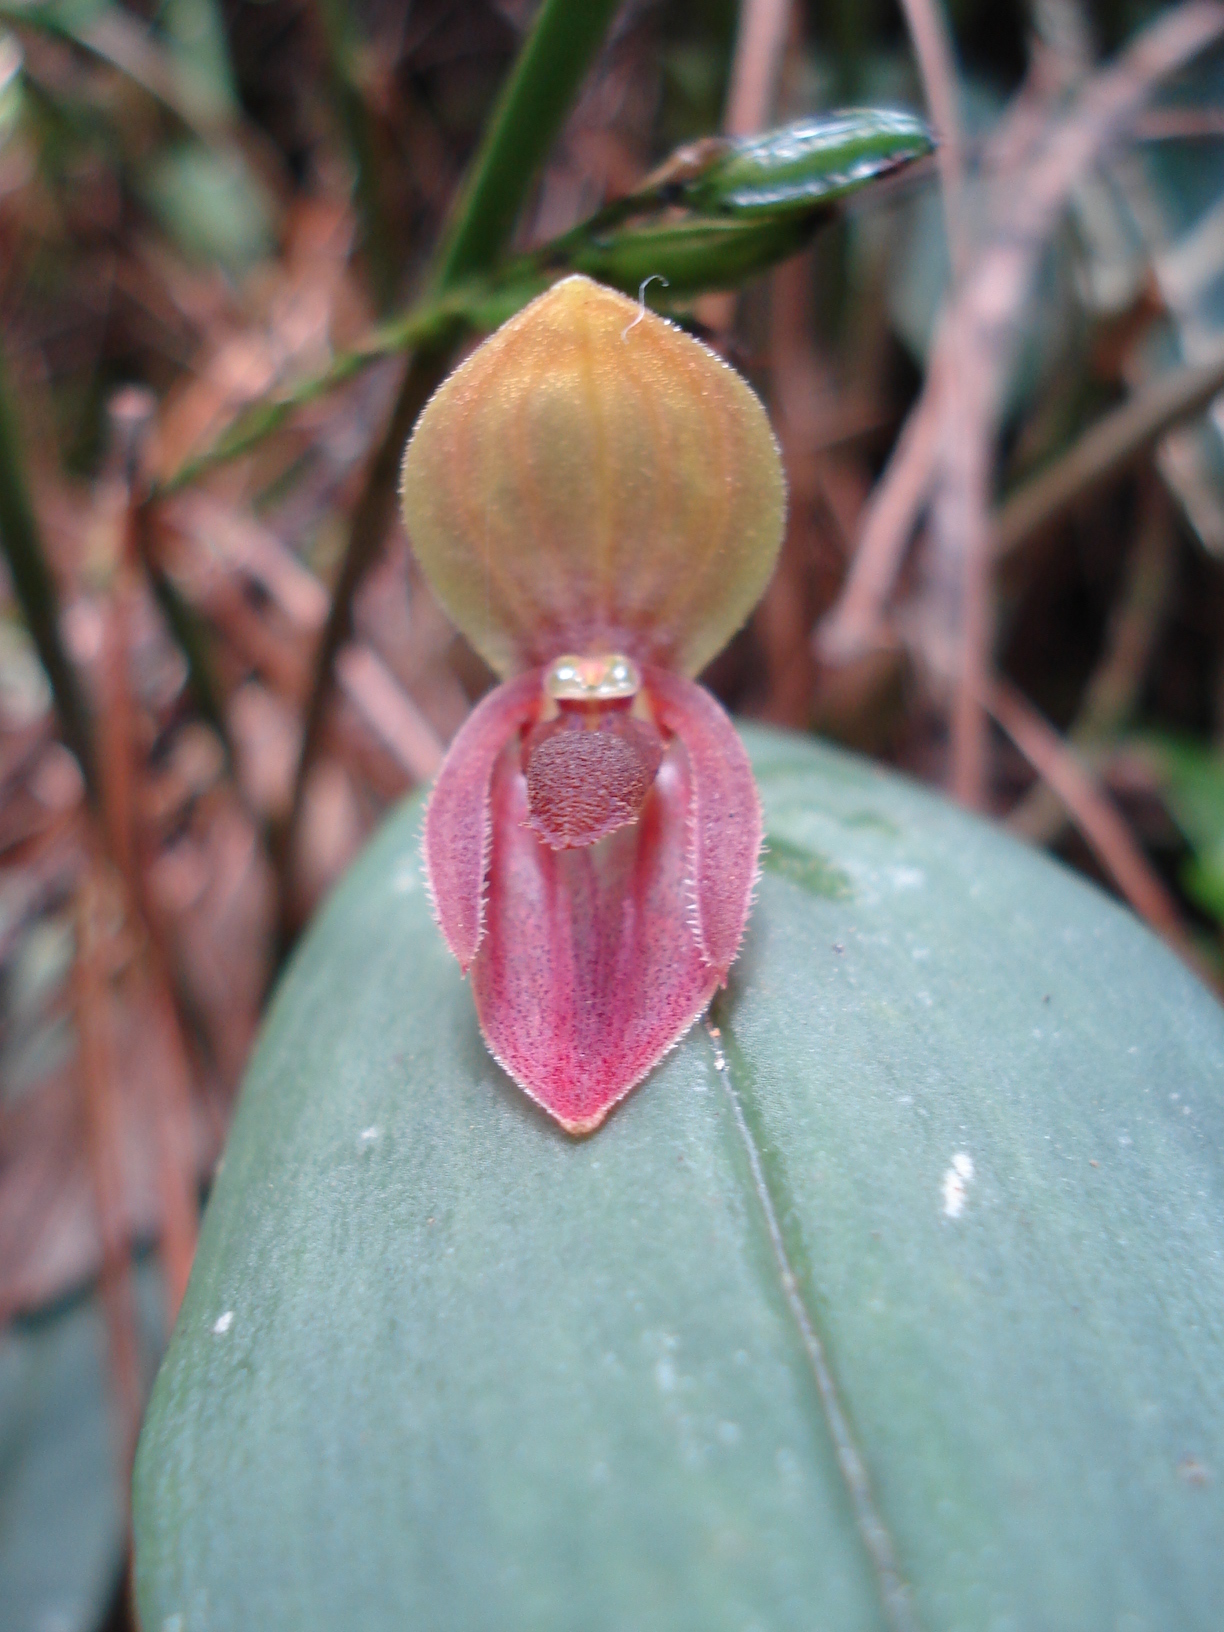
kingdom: Plantae
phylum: Tracheophyta
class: Liliopsida
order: Asparagales
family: Orchidaceae
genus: Pleurothallis
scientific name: Pleurothallis linguifera
